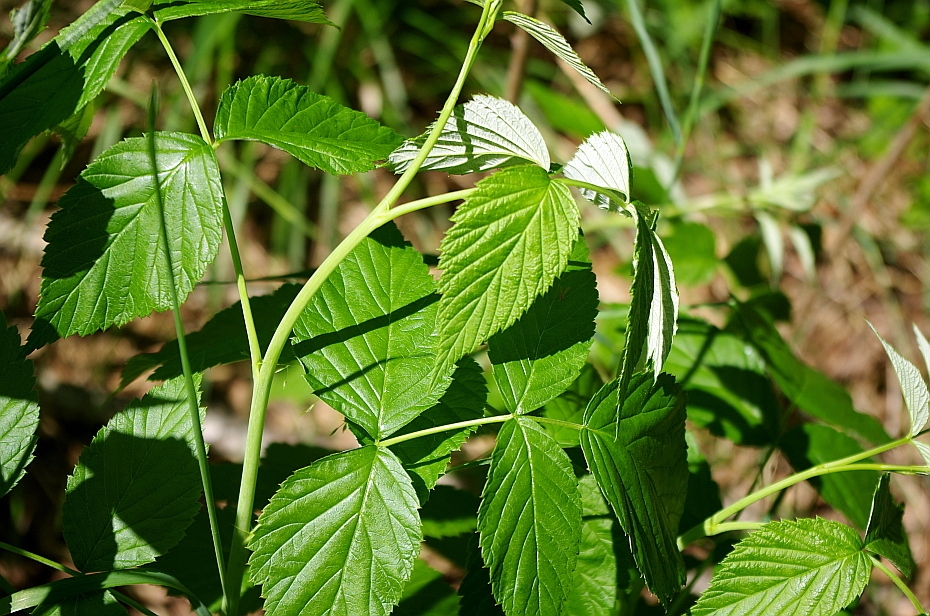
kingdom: Plantae
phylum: Tracheophyta
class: Magnoliopsida
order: Rosales
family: Rosaceae
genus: Rubus
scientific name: Rubus idaeus
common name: Raspberry
